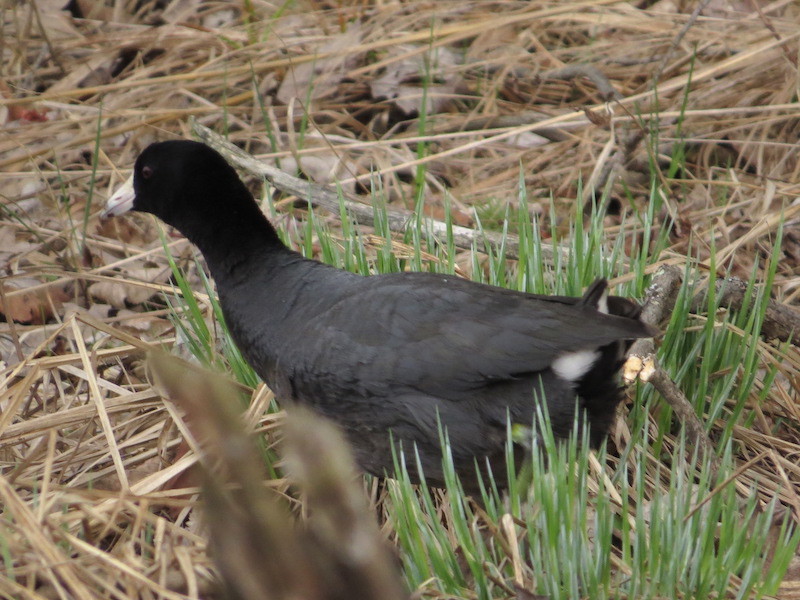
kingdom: Animalia
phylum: Chordata
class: Aves
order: Gruiformes
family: Rallidae
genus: Fulica
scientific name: Fulica americana
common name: American coot
